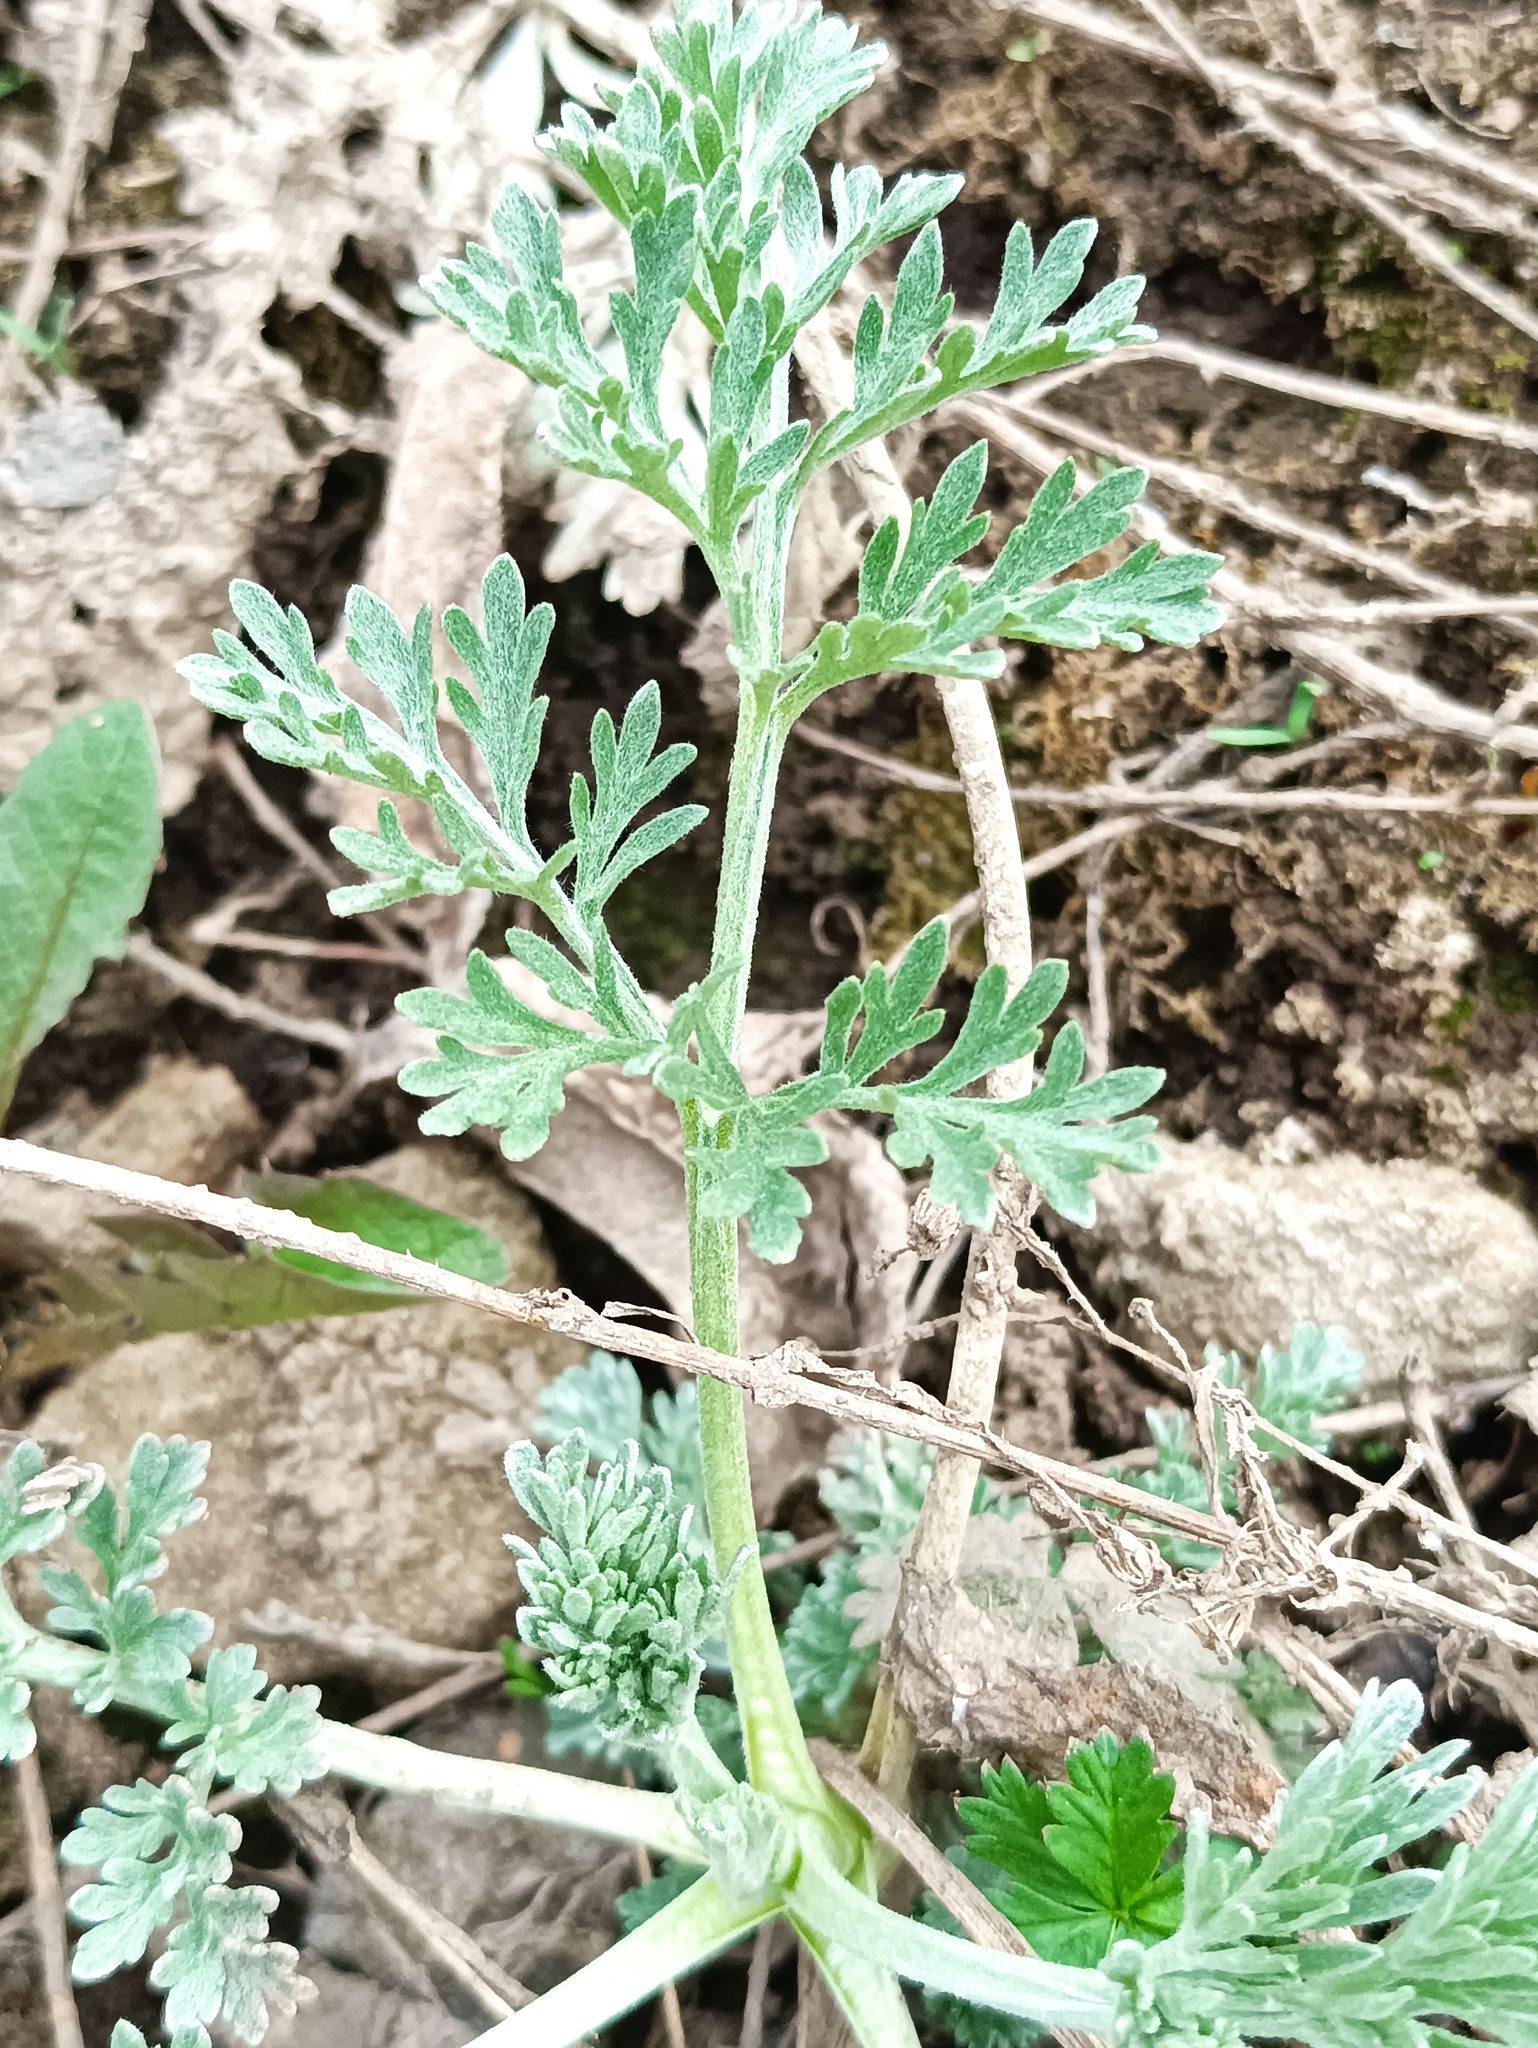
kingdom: Plantae
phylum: Tracheophyta
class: Magnoliopsida
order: Asterales
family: Asteraceae
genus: Artemisia
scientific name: Artemisia absinthium
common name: Wormwood
